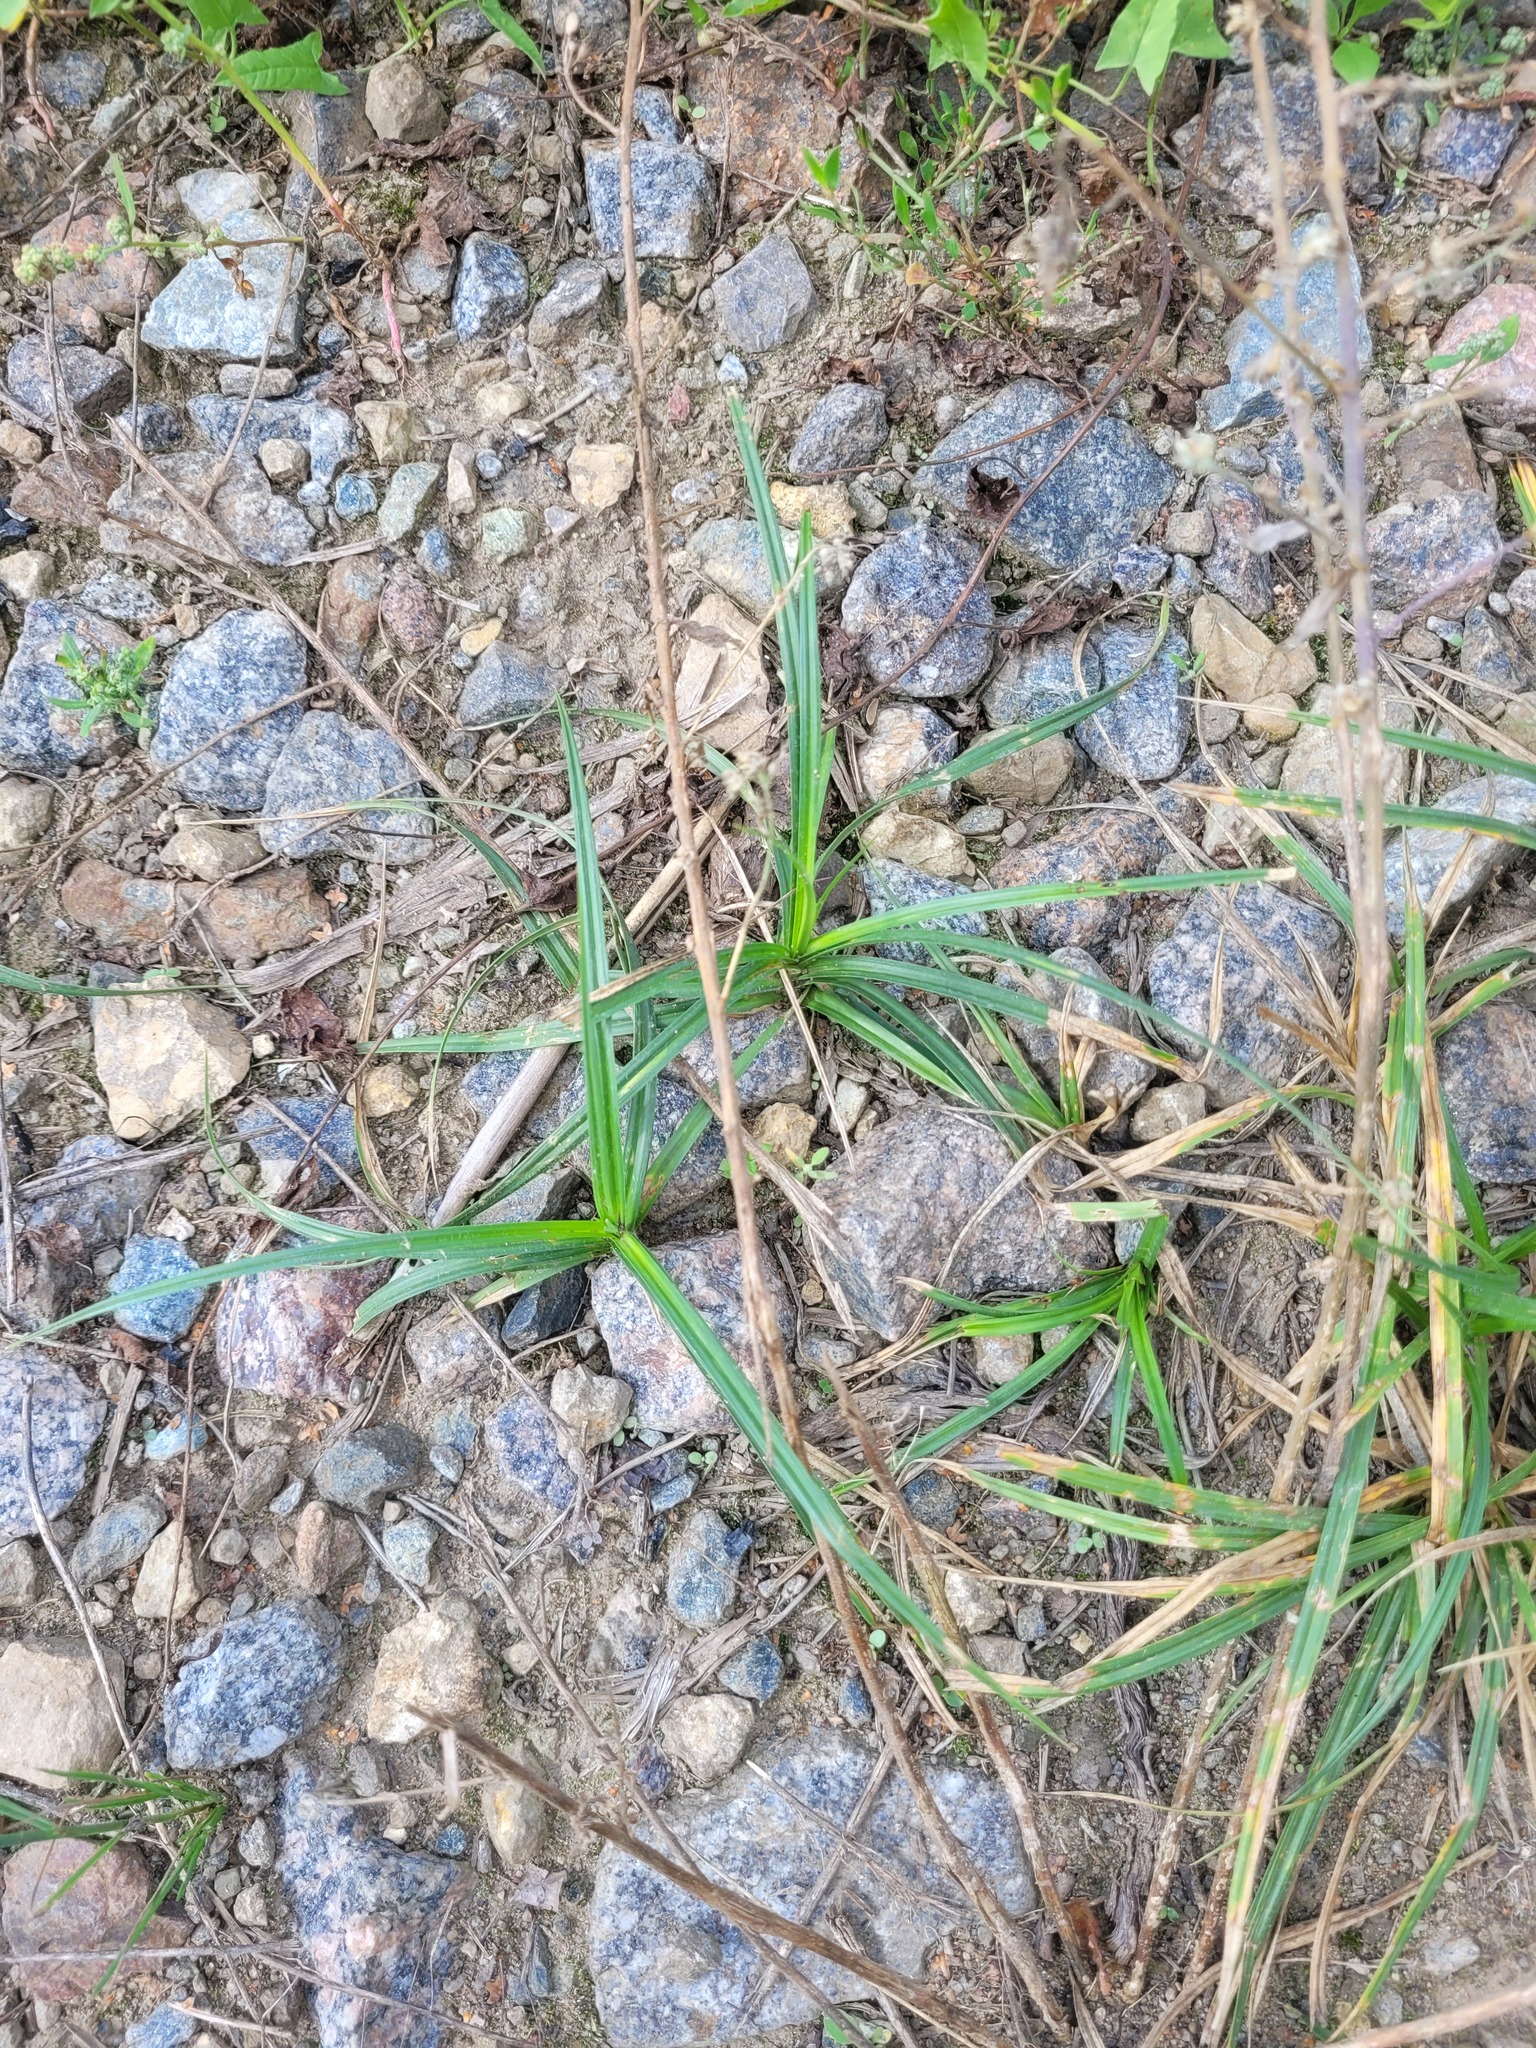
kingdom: Plantae
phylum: Tracheophyta
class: Liliopsida
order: Poales
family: Cyperaceae
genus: Carex
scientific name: Carex hirta
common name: Hairy sedge
